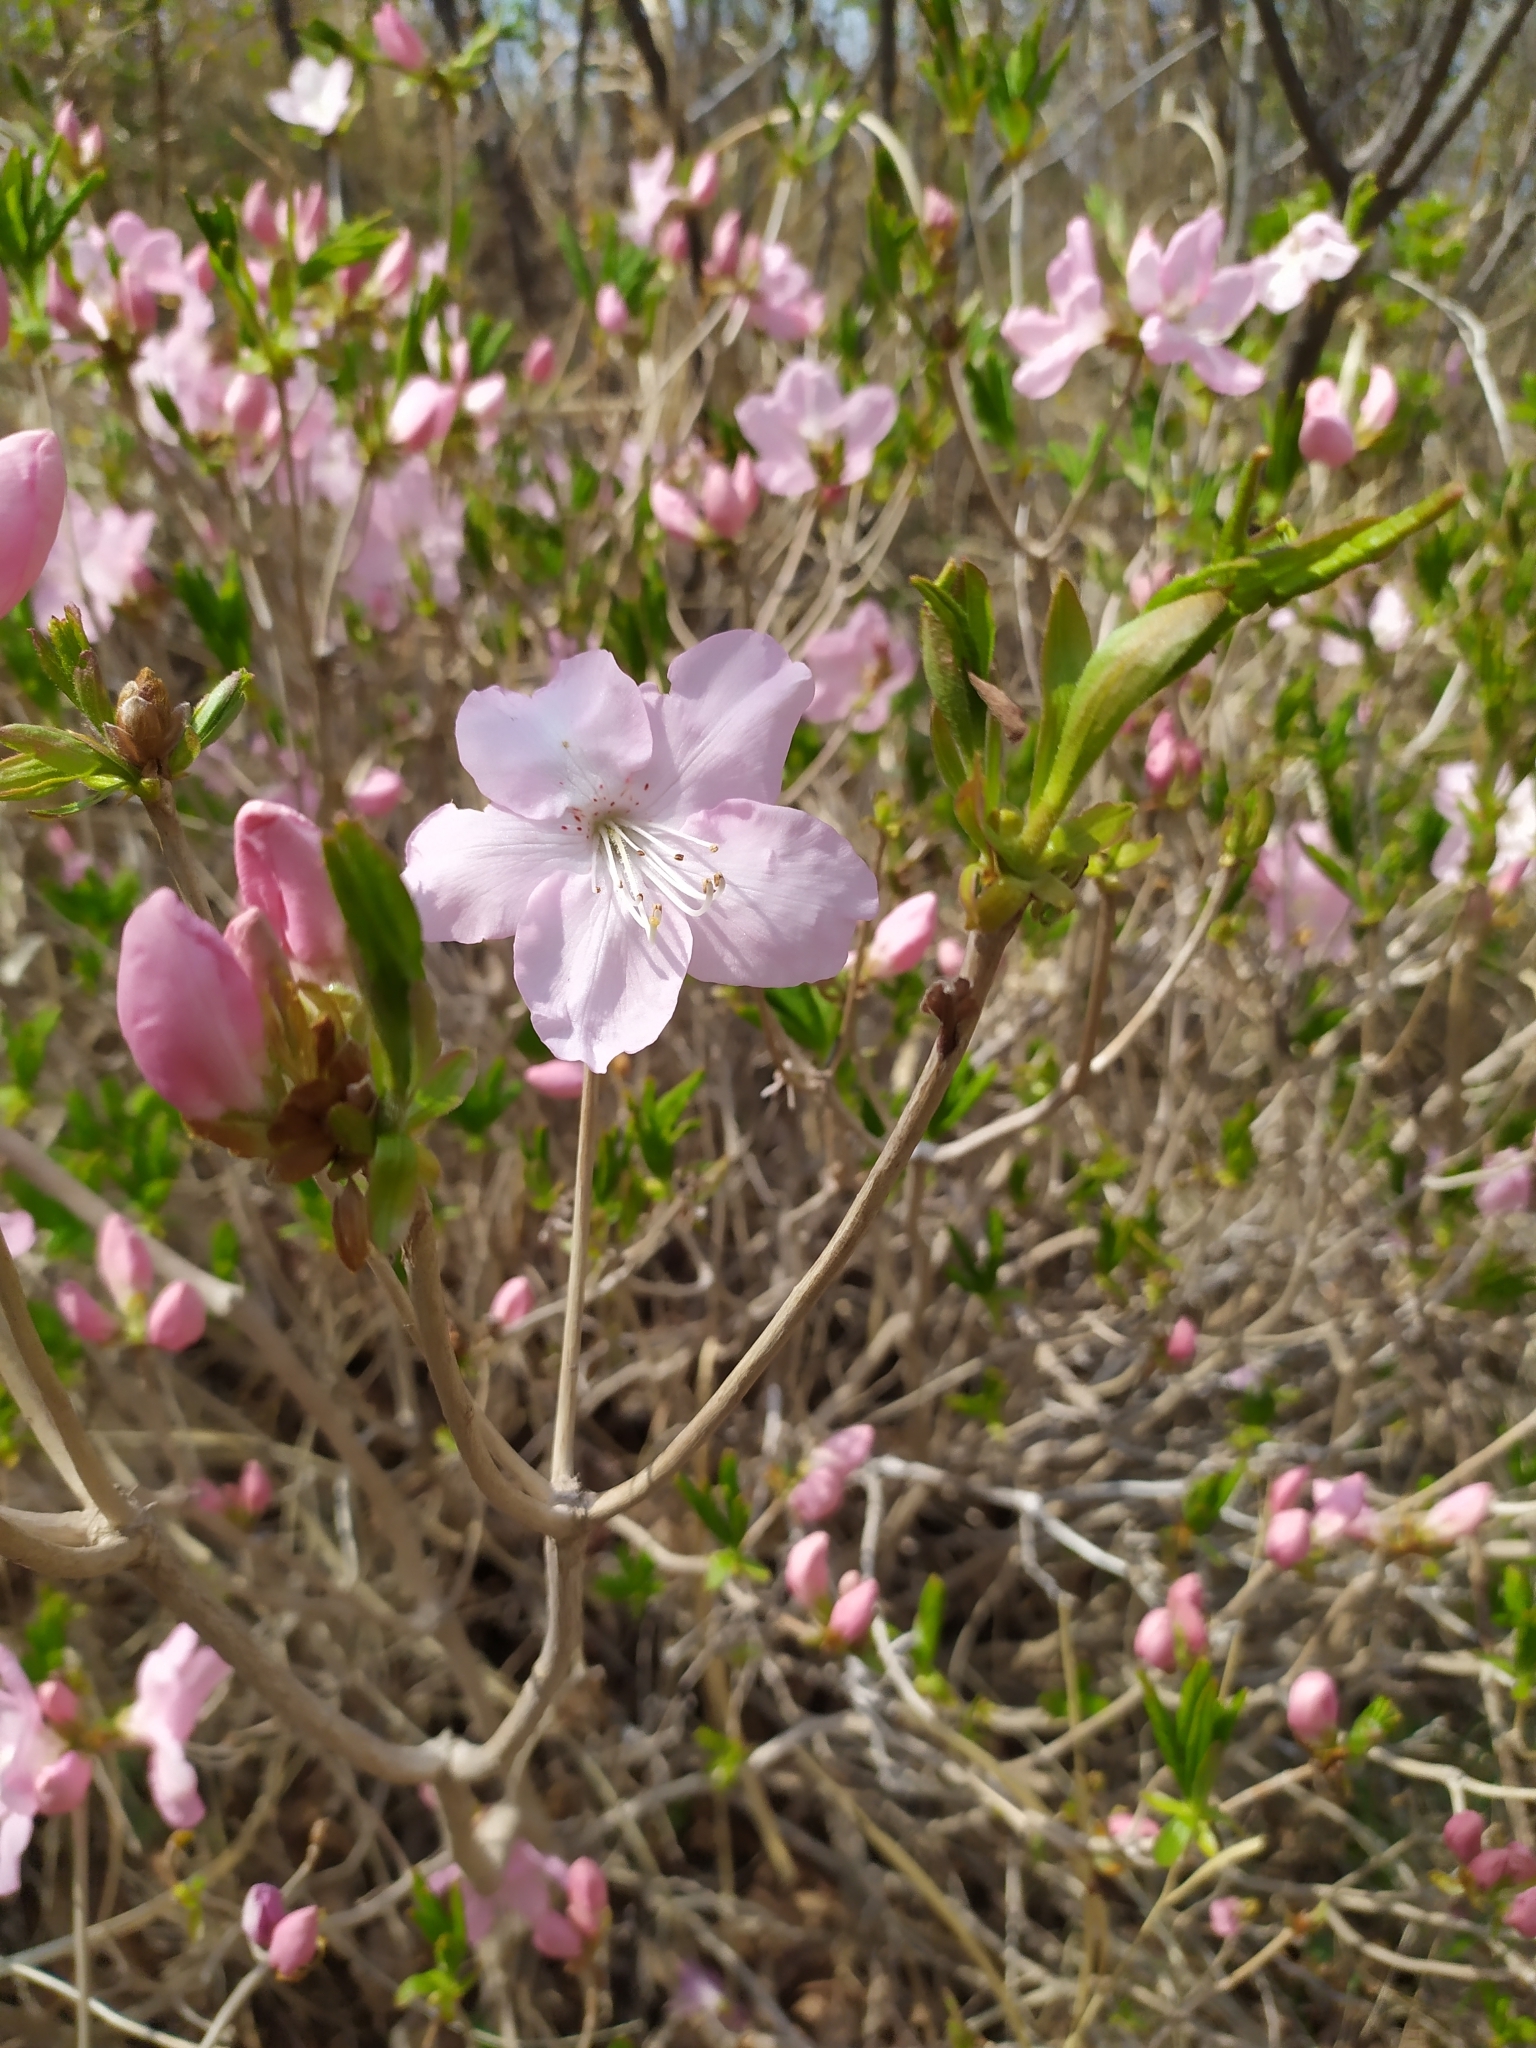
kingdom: Plantae
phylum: Tracheophyta
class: Magnoliopsida
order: Ericales
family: Ericaceae
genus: Rhododendron
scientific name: Rhododendron schlippenbachii
